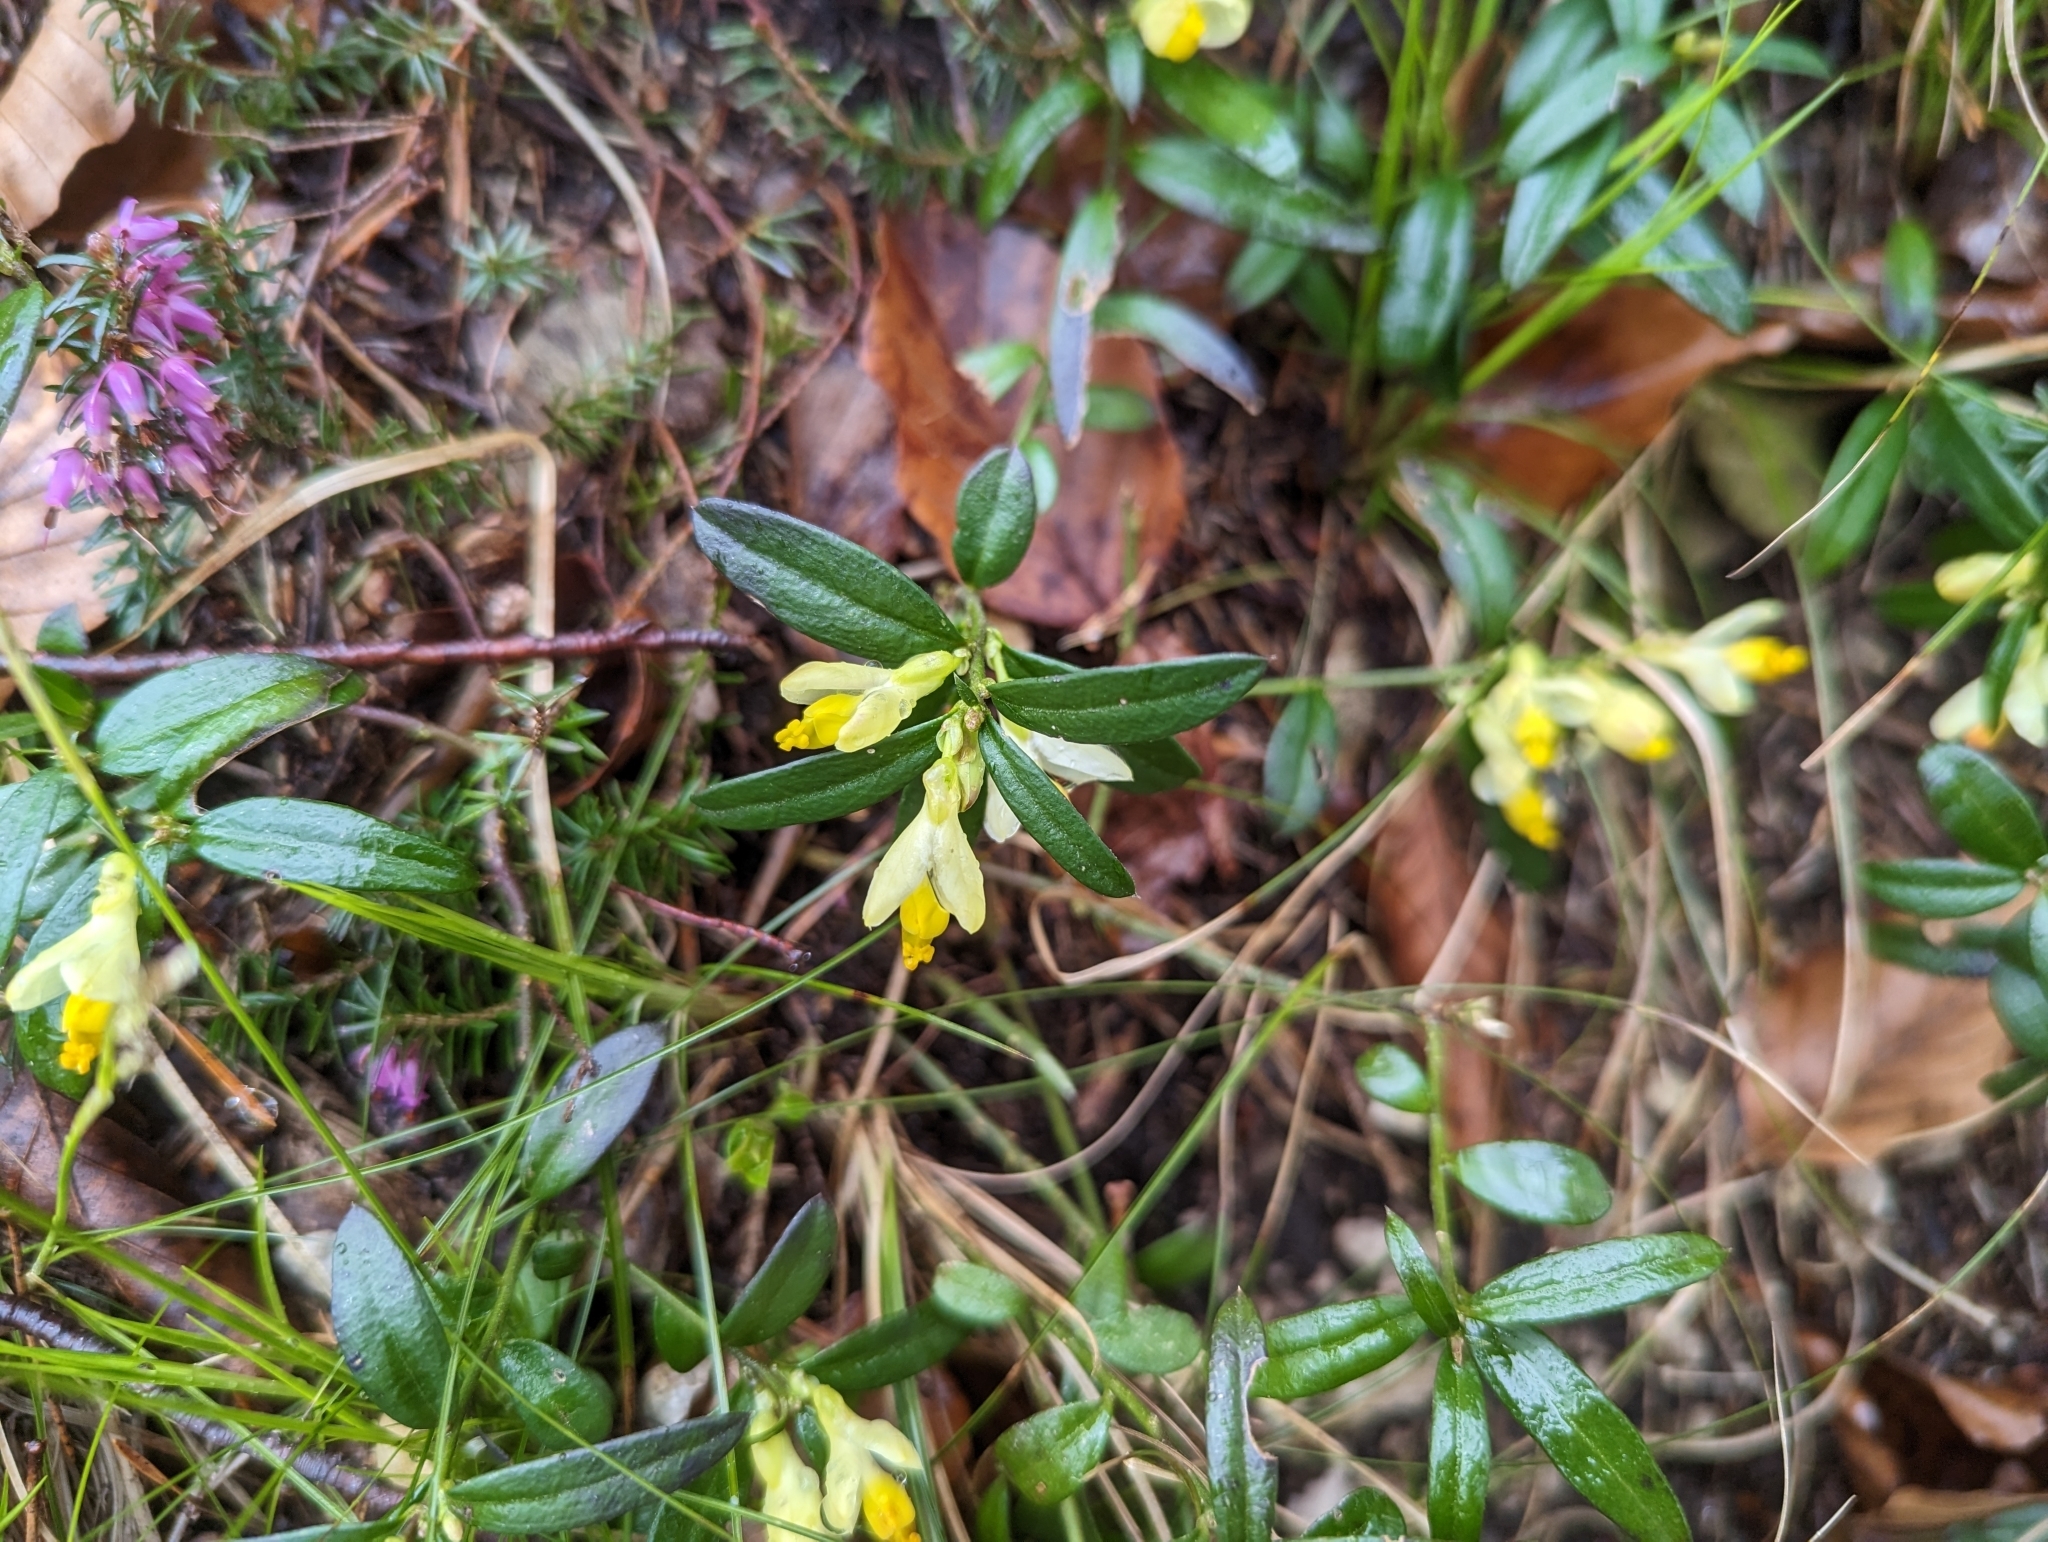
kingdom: Plantae
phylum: Tracheophyta
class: Magnoliopsida
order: Fabales
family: Polygalaceae
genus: Polygaloides
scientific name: Polygaloides chamaebuxus
